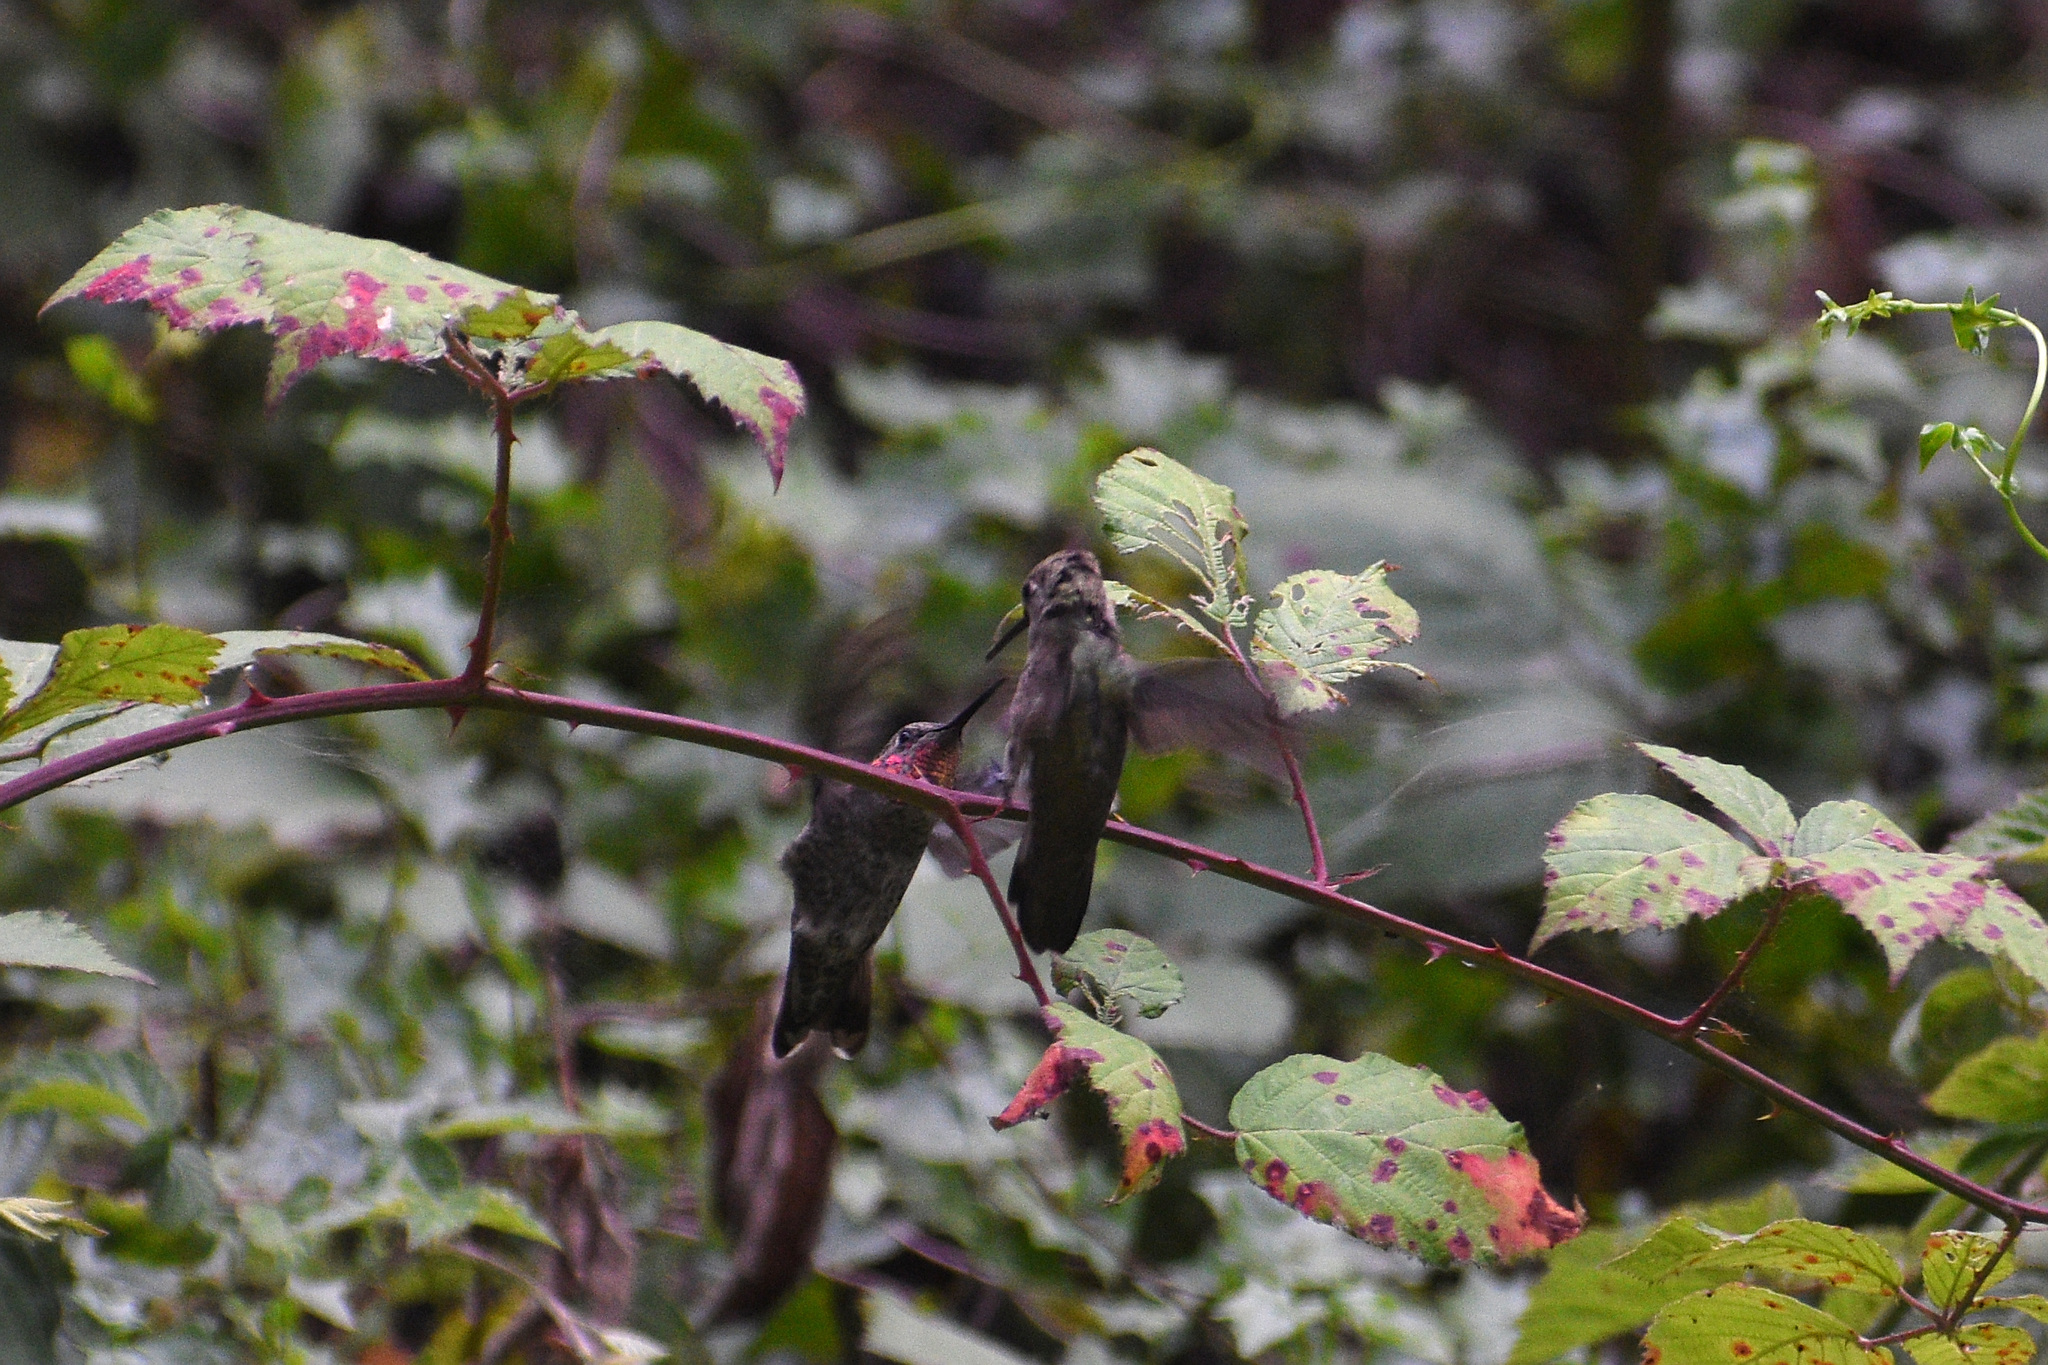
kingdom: Animalia
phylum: Chordata
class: Aves
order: Apodiformes
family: Trochilidae
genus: Calypte
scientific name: Calypte anna
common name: Anna's hummingbird
